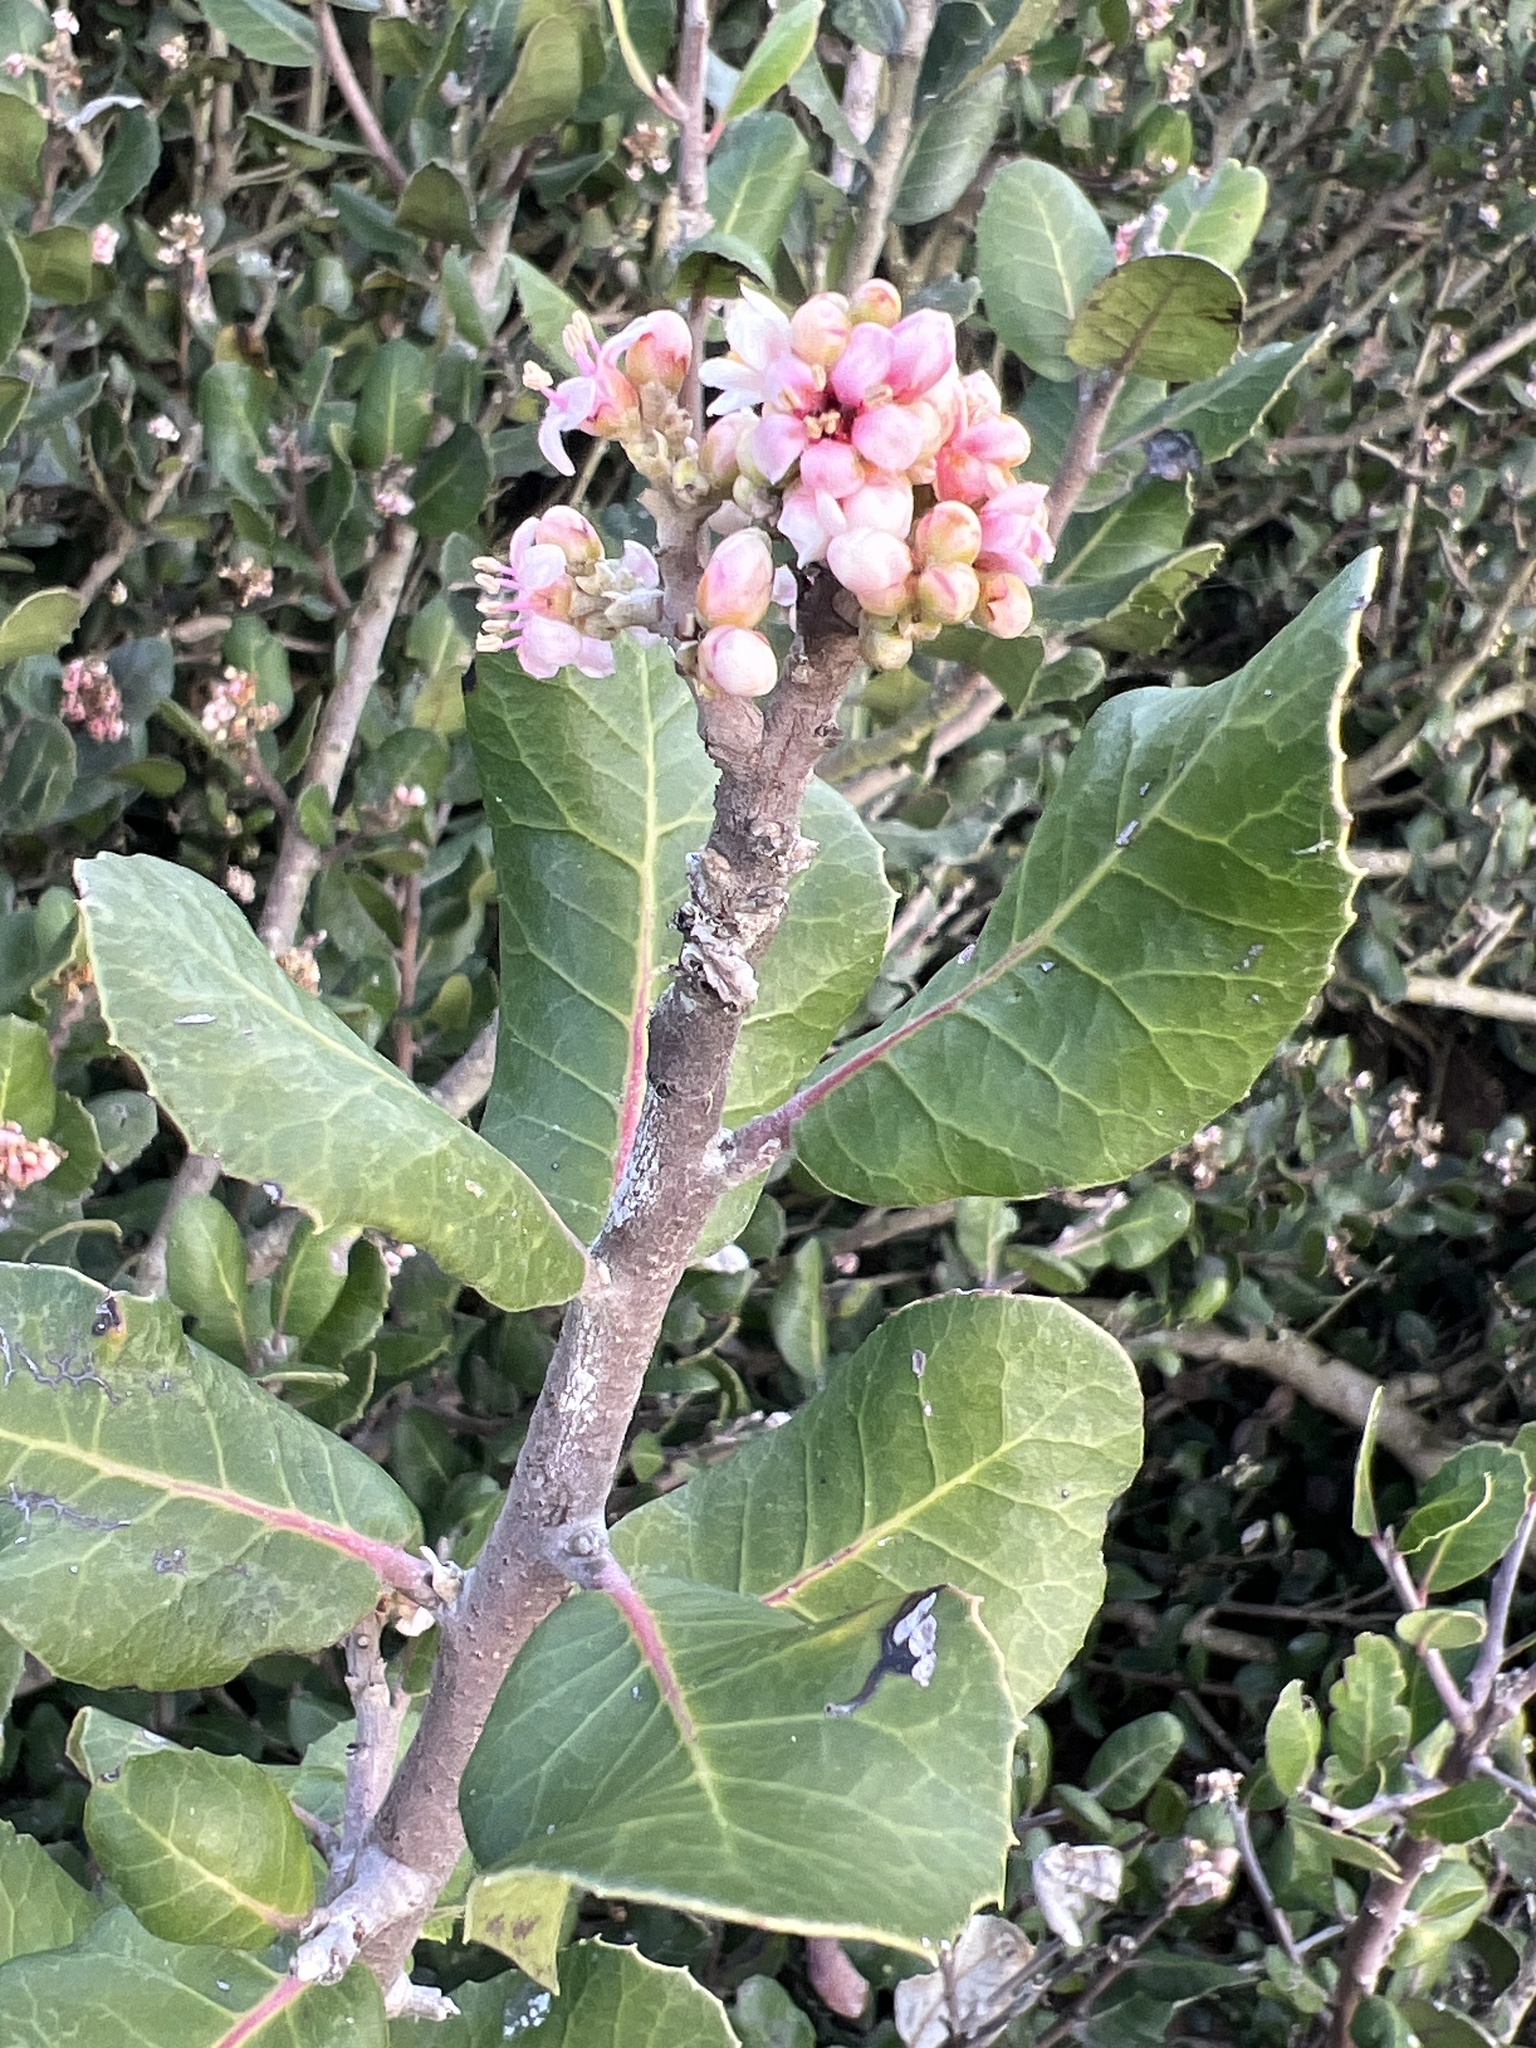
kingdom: Plantae
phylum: Tracheophyta
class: Magnoliopsida
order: Sapindales
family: Anacardiaceae
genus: Rhus
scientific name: Rhus integrifolia
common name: Lemonade sumac
